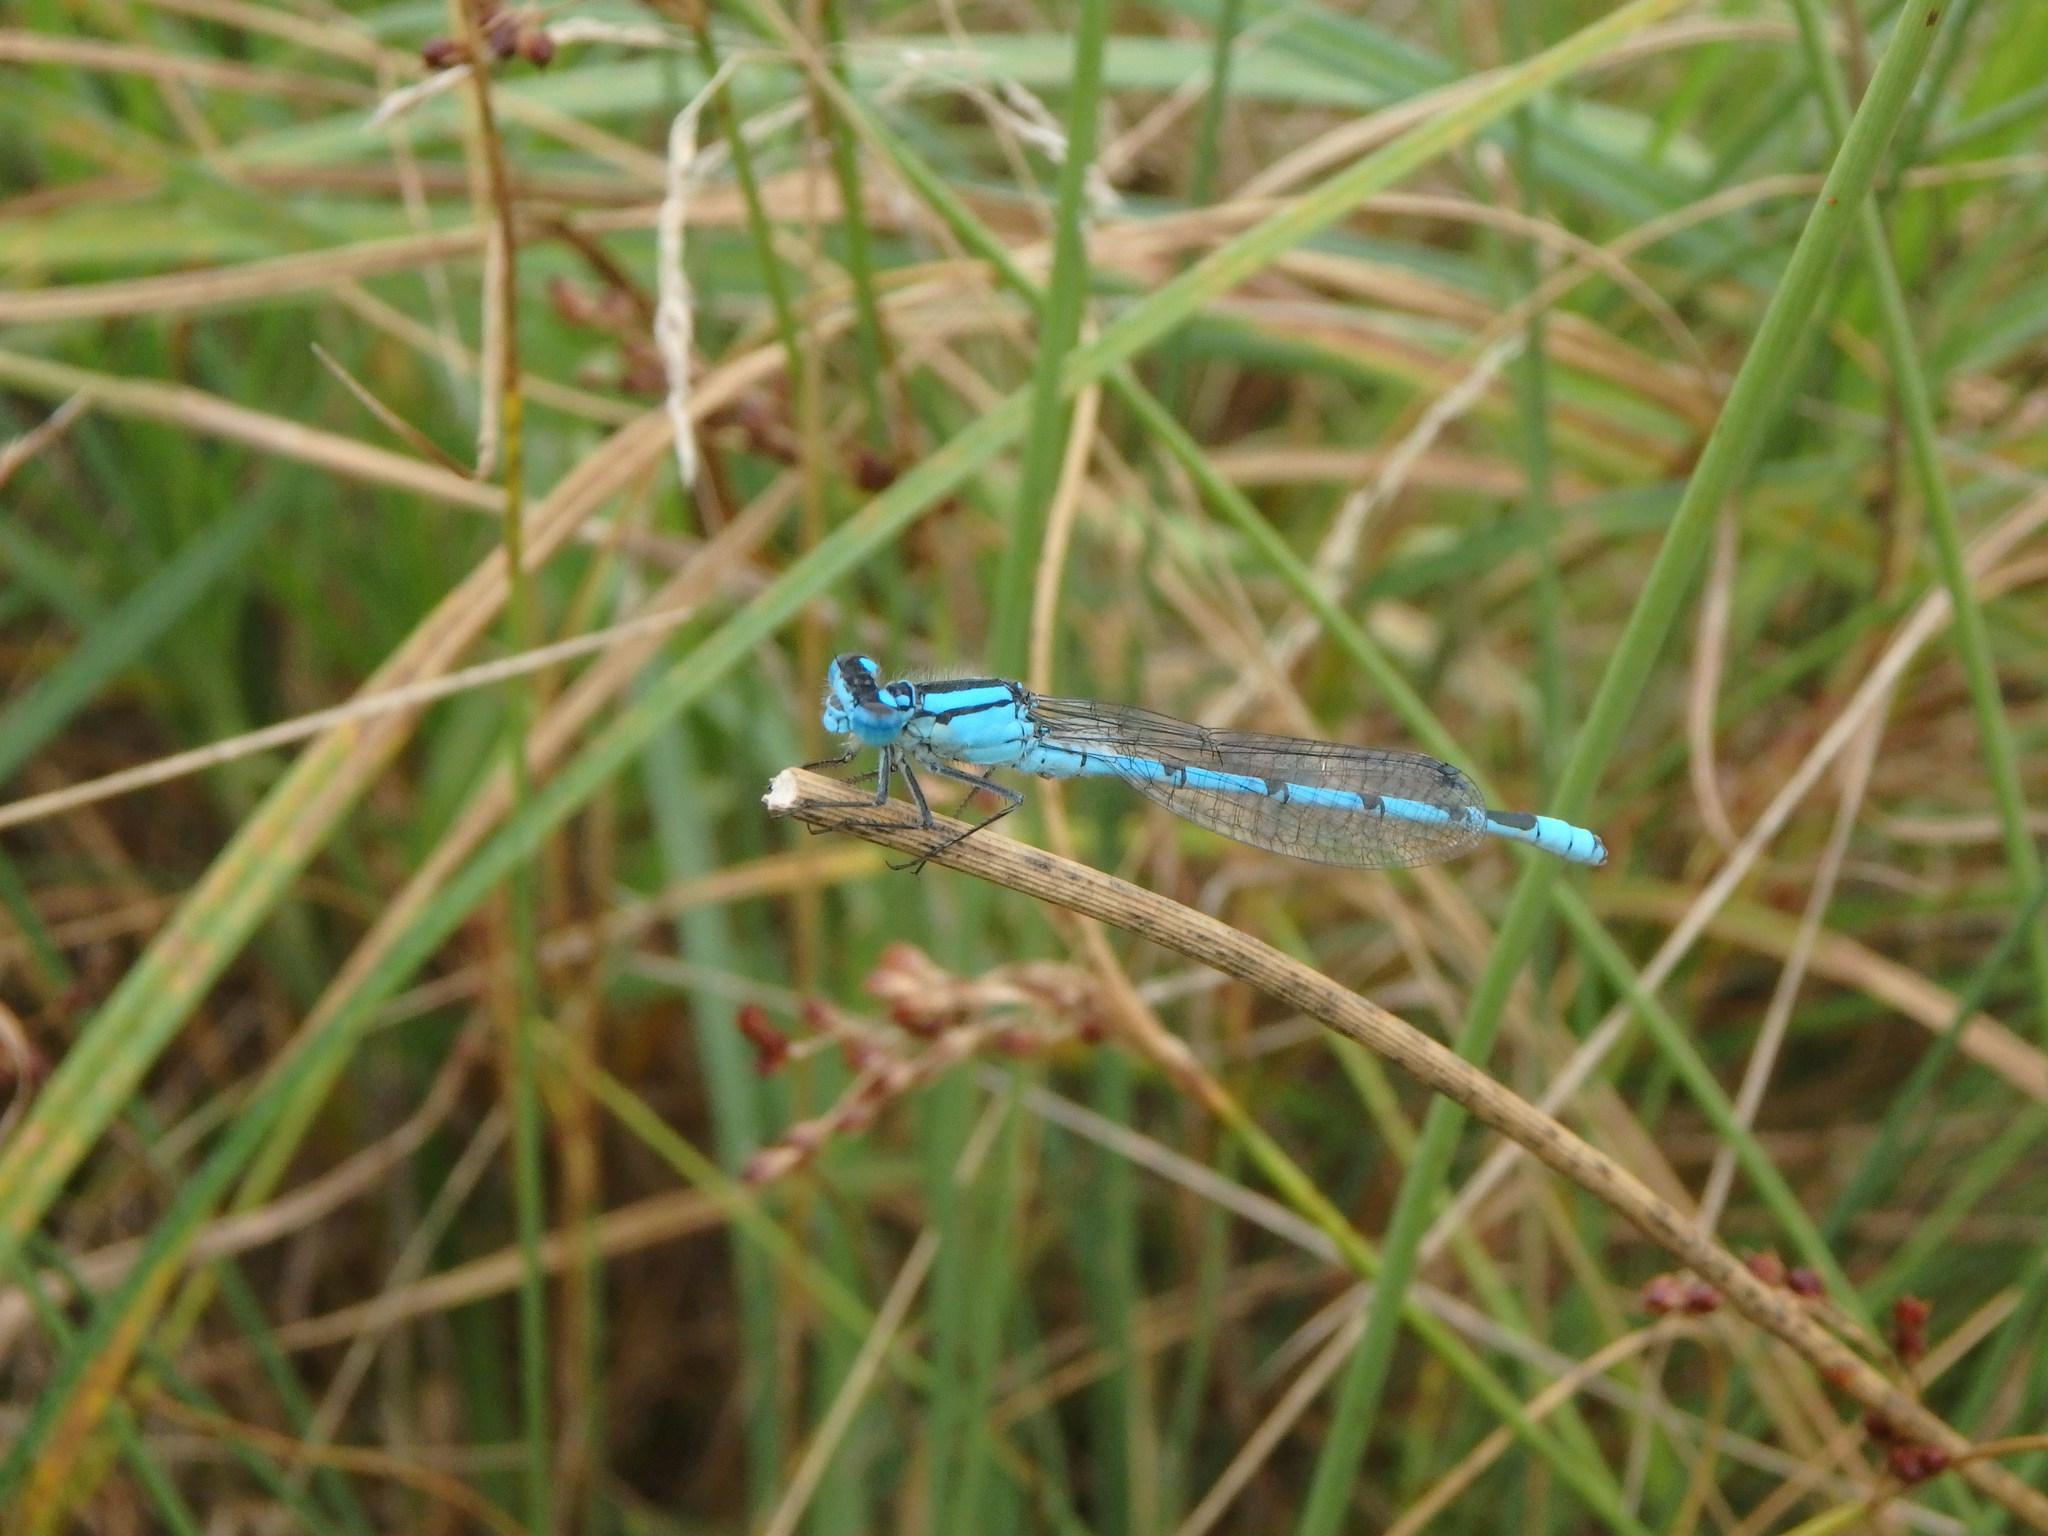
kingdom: Animalia
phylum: Arthropoda
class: Insecta
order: Odonata
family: Coenagrionidae
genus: Enallagma
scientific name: Enallagma cyathigerum
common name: Common blue damselfly
